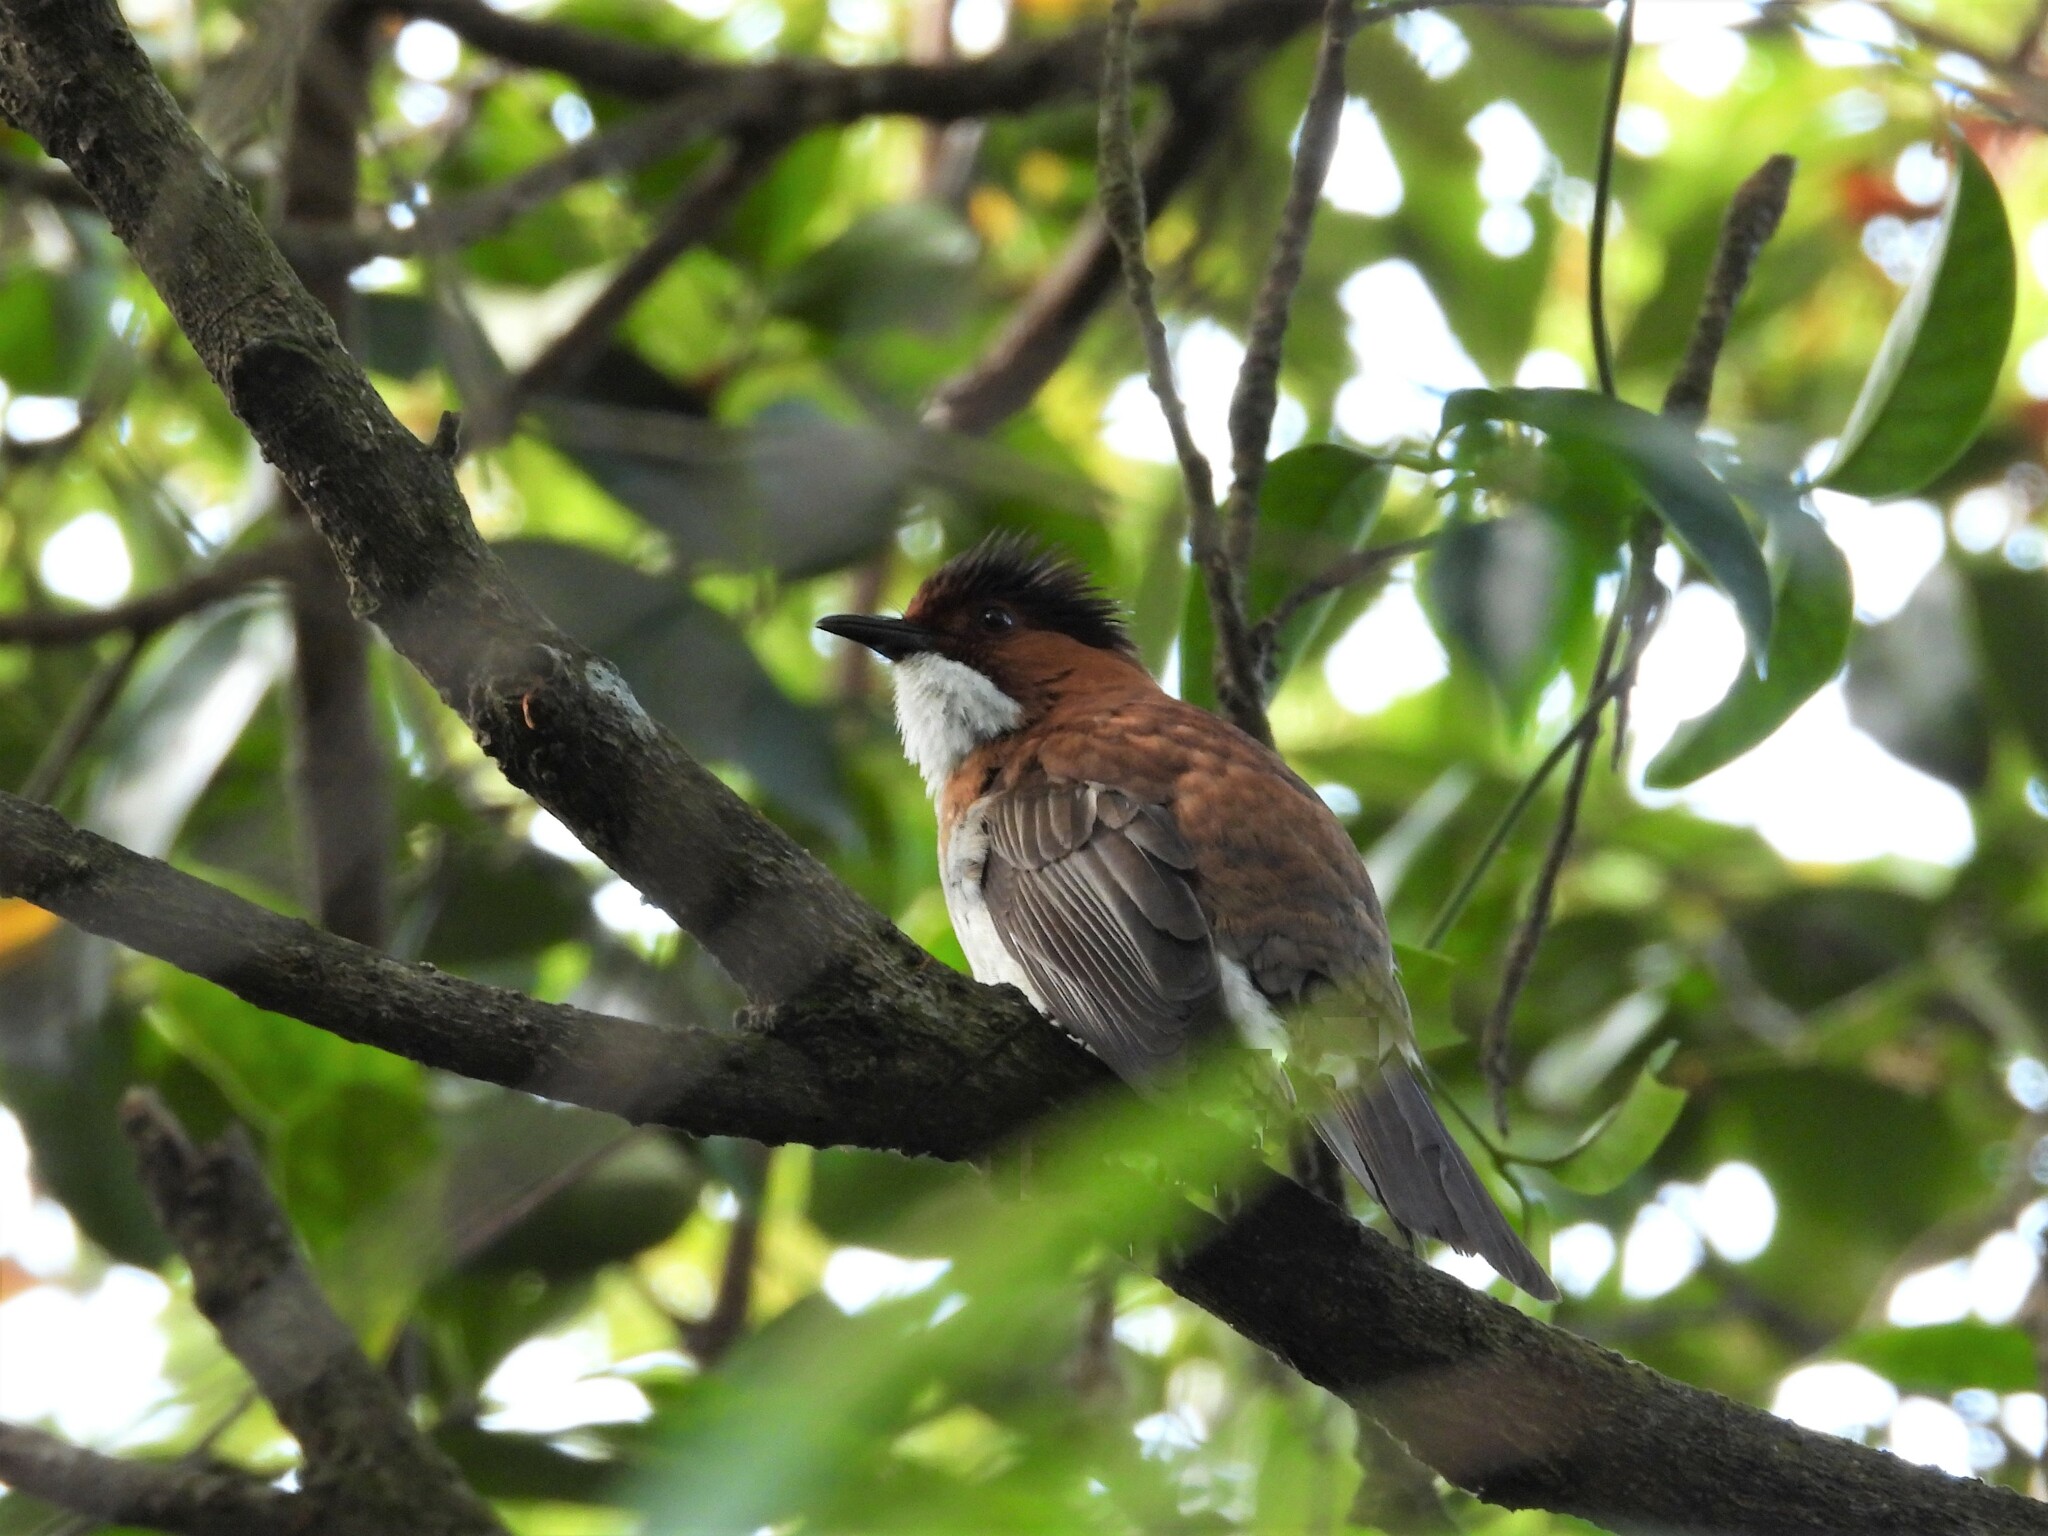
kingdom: Animalia
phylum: Chordata
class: Aves
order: Passeriformes
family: Pycnonotidae
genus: Hemixos
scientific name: Hemixos castanonotus
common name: Chestnut bulbul
